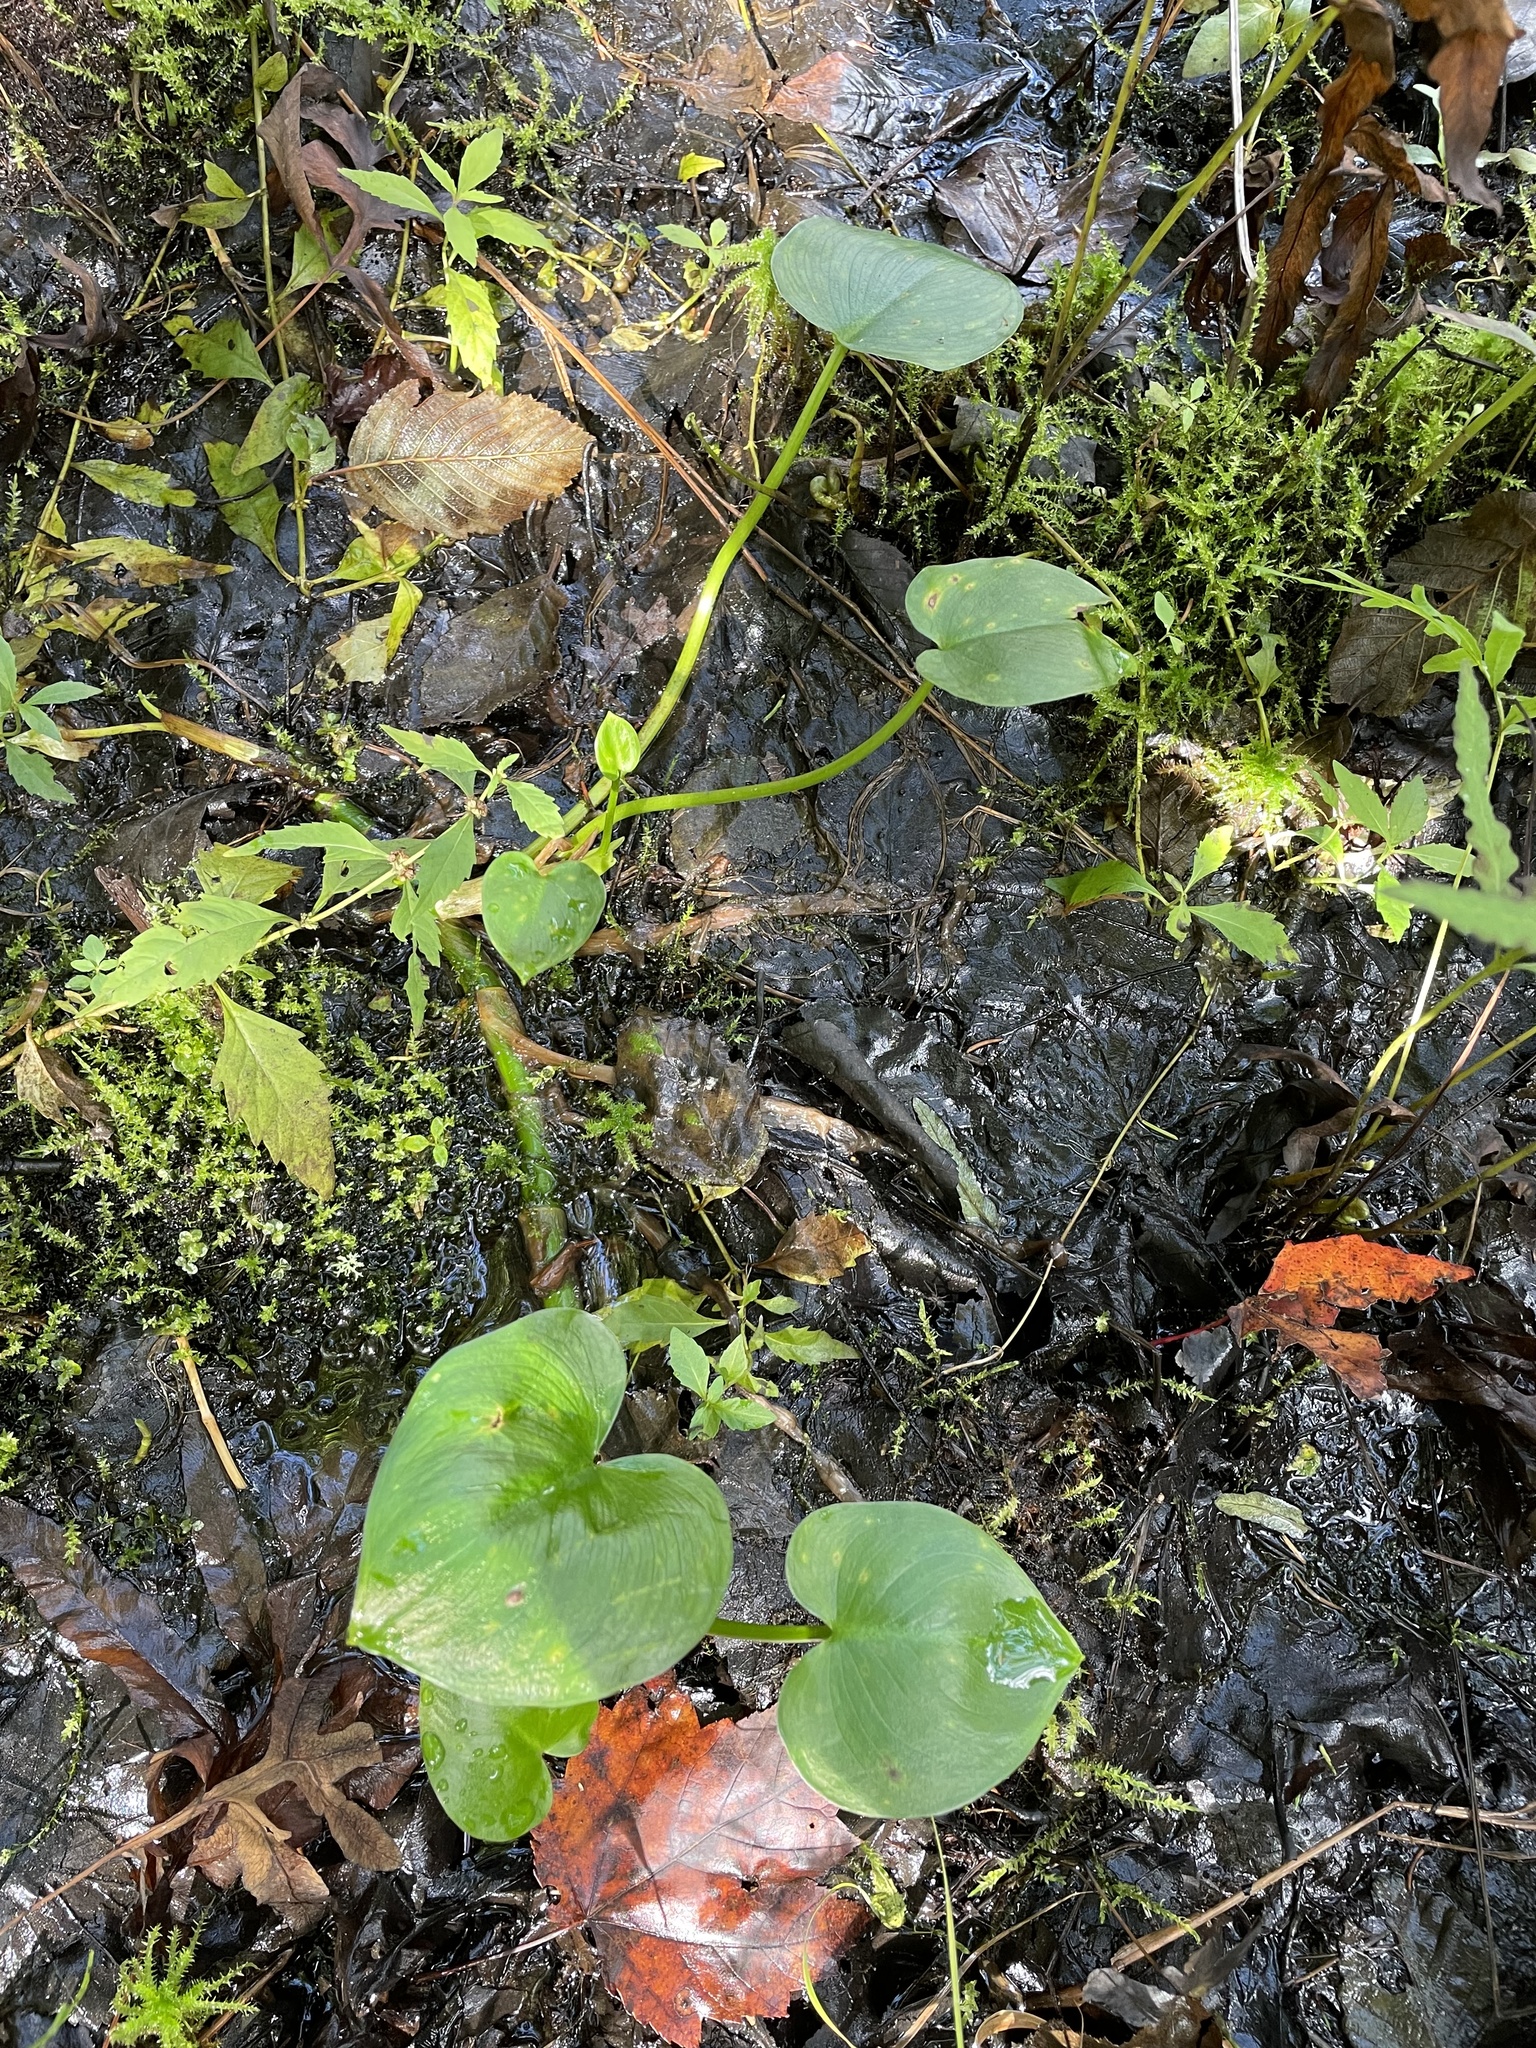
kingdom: Plantae
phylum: Tracheophyta
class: Liliopsida
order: Alismatales
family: Araceae
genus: Calla
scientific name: Calla palustris
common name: Bog arum
